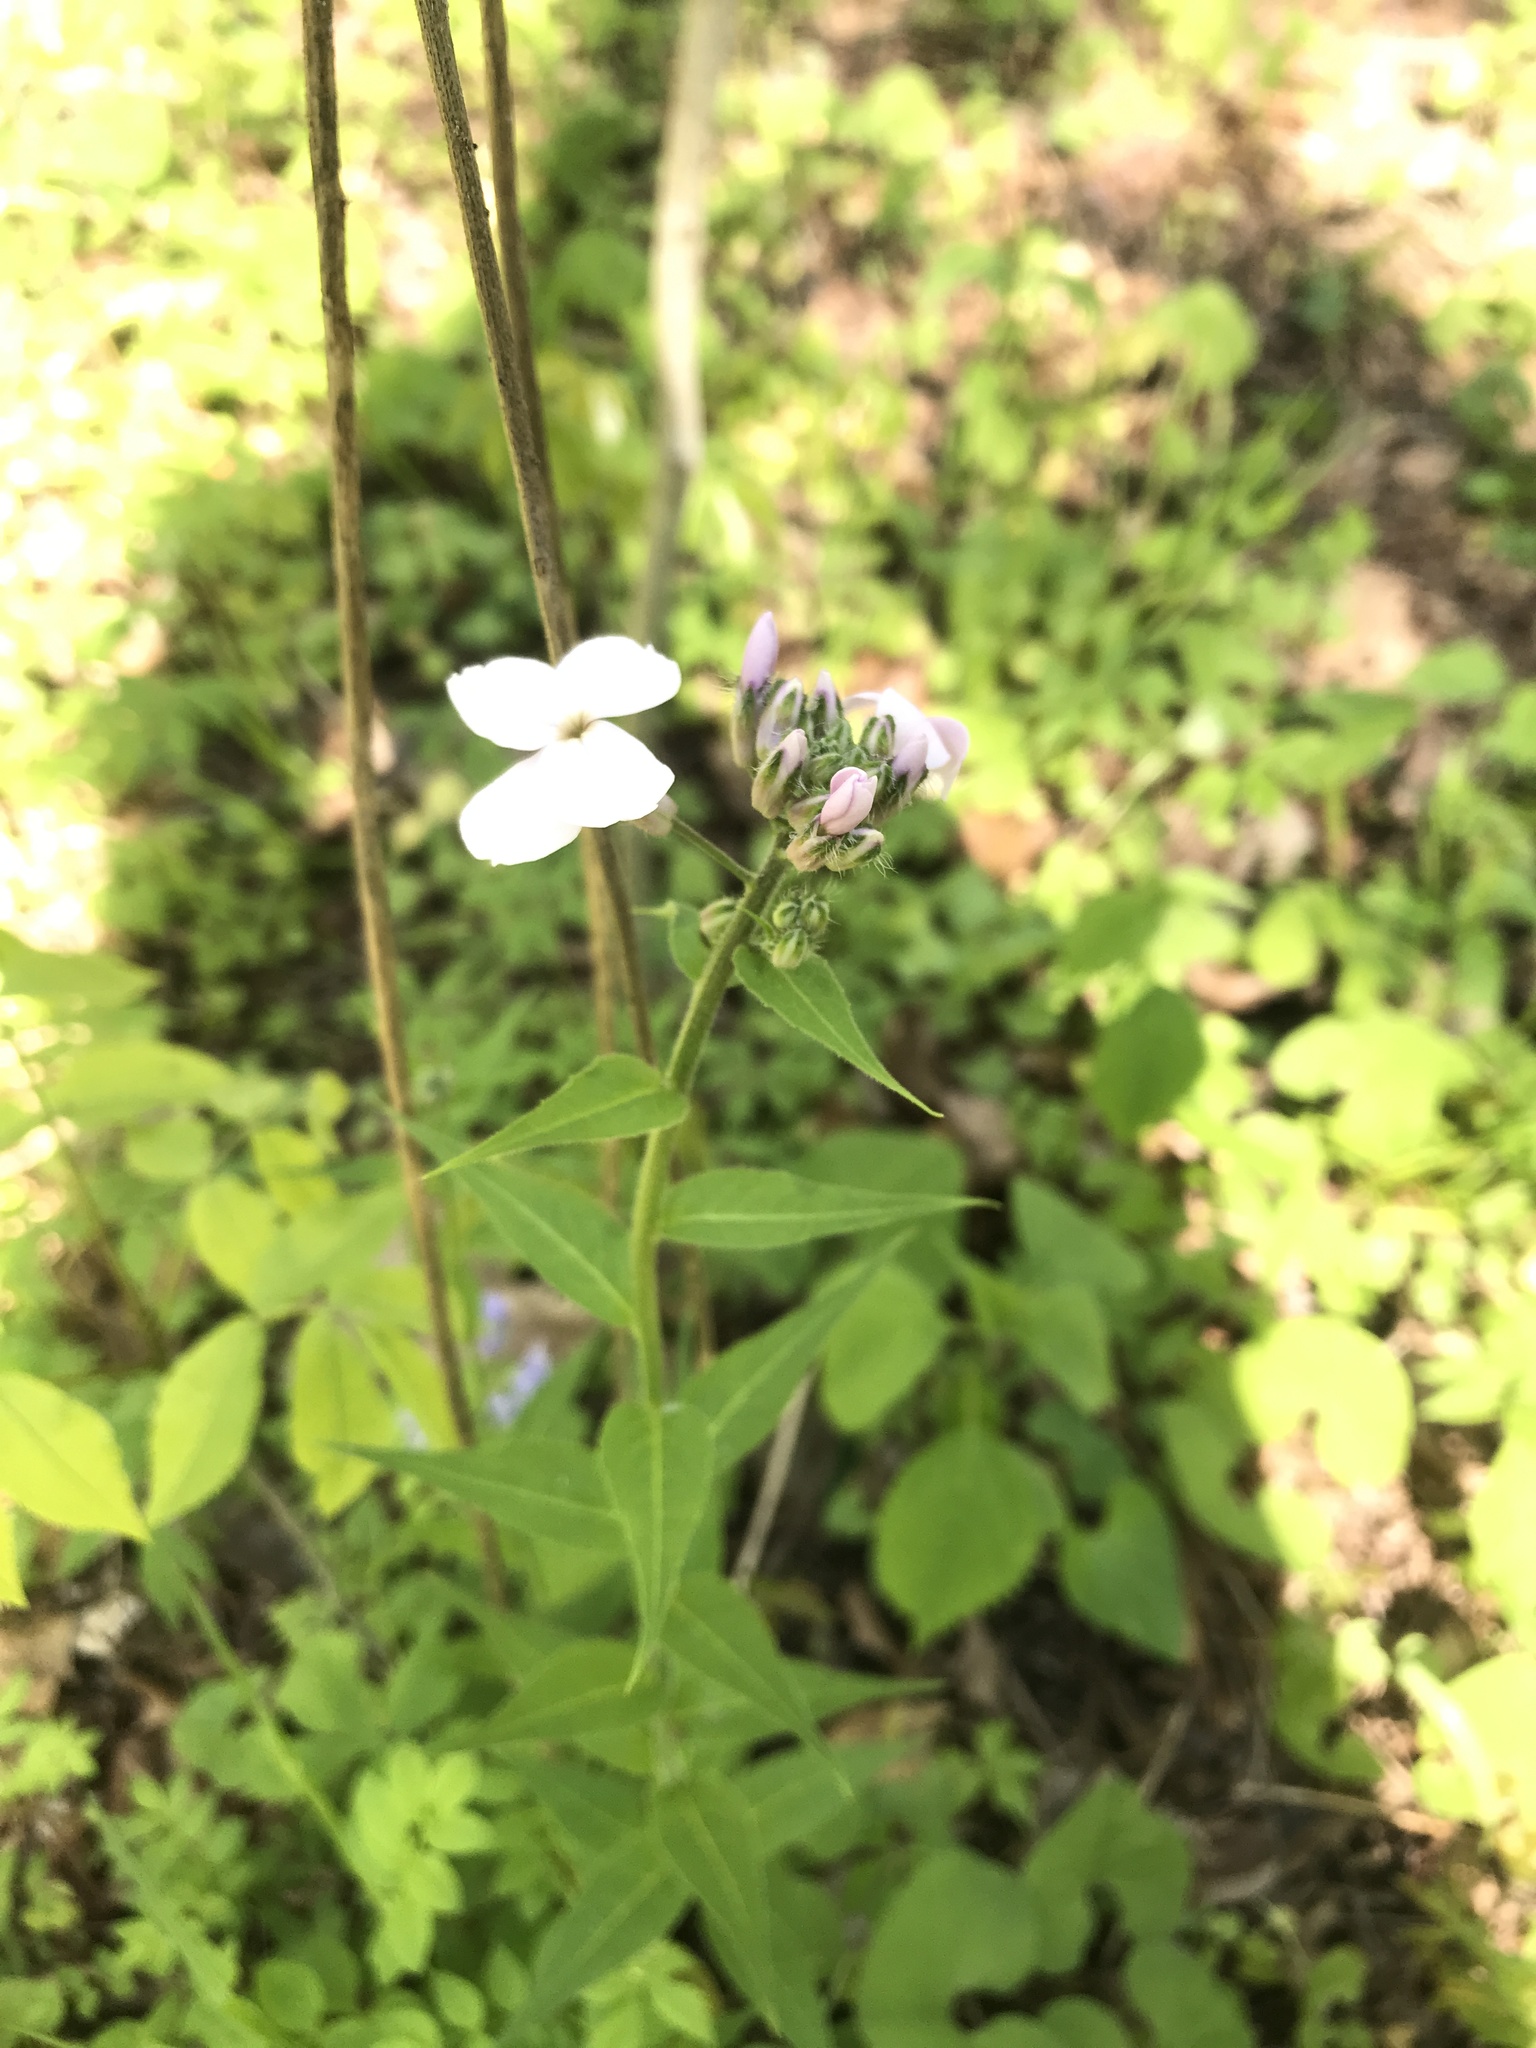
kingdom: Plantae
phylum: Tracheophyta
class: Magnoliopsida
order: Brassicales
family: Brassicaceae
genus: Hesperis
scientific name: Hesperis matronalis
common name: Dame's-violet
